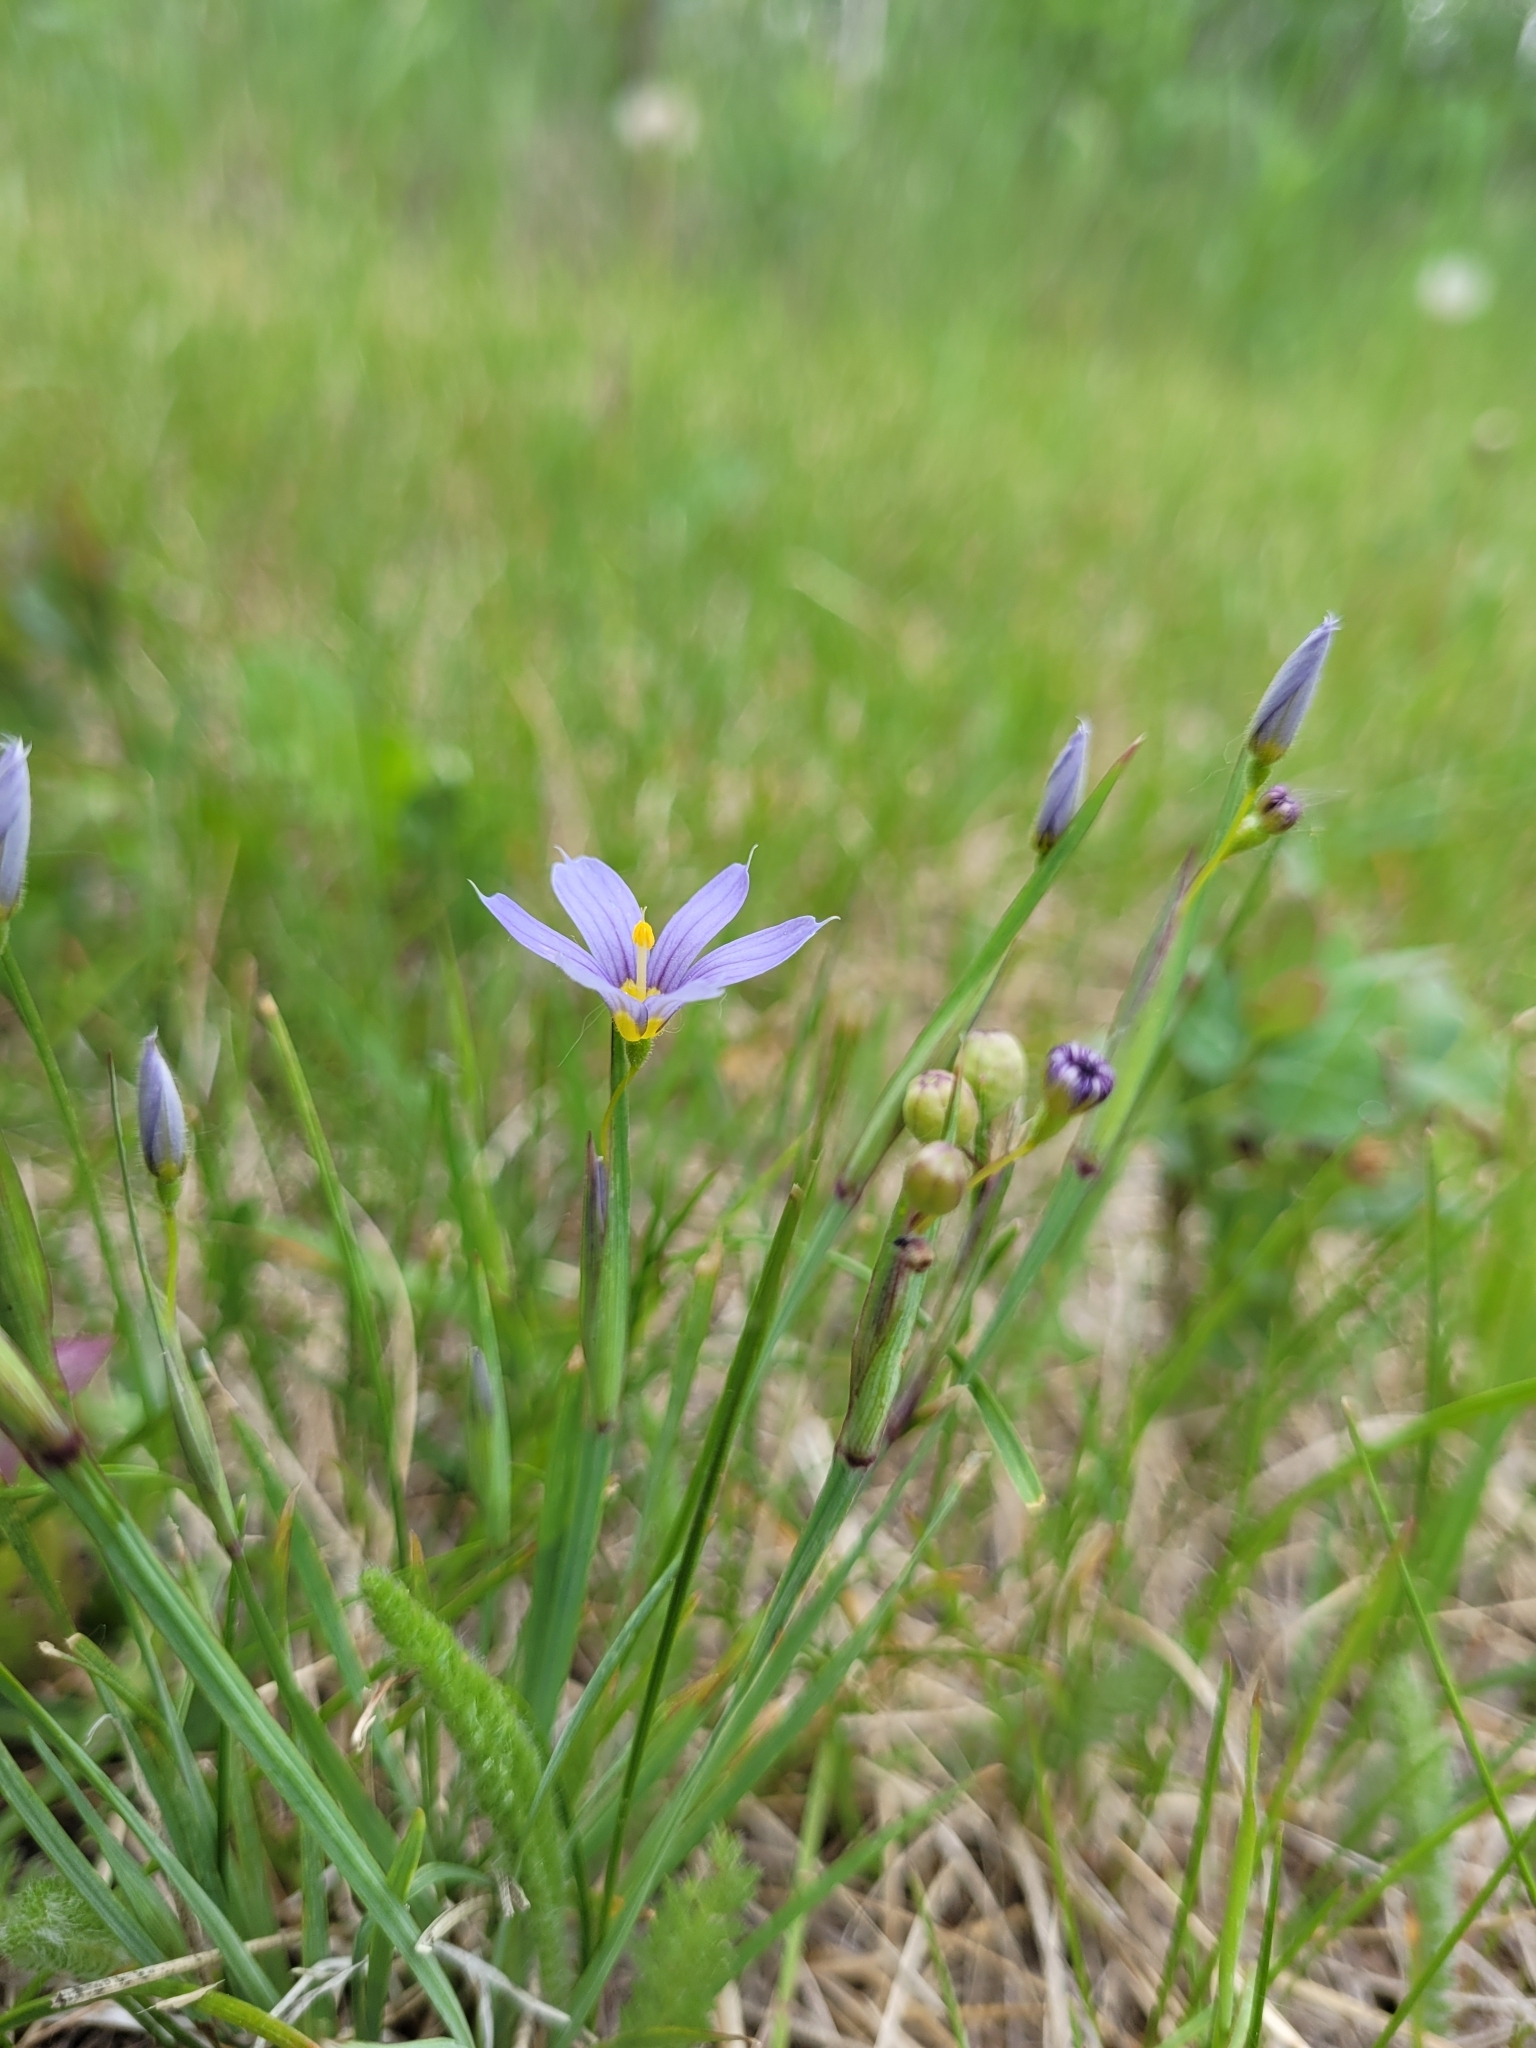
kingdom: Plantae
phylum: Tracheophyta
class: Liliopsida
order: Asparagales
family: Iridaceae
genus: Sisyrinchium
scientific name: Sisyrinchium montanum
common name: American blue-eyed-grass
